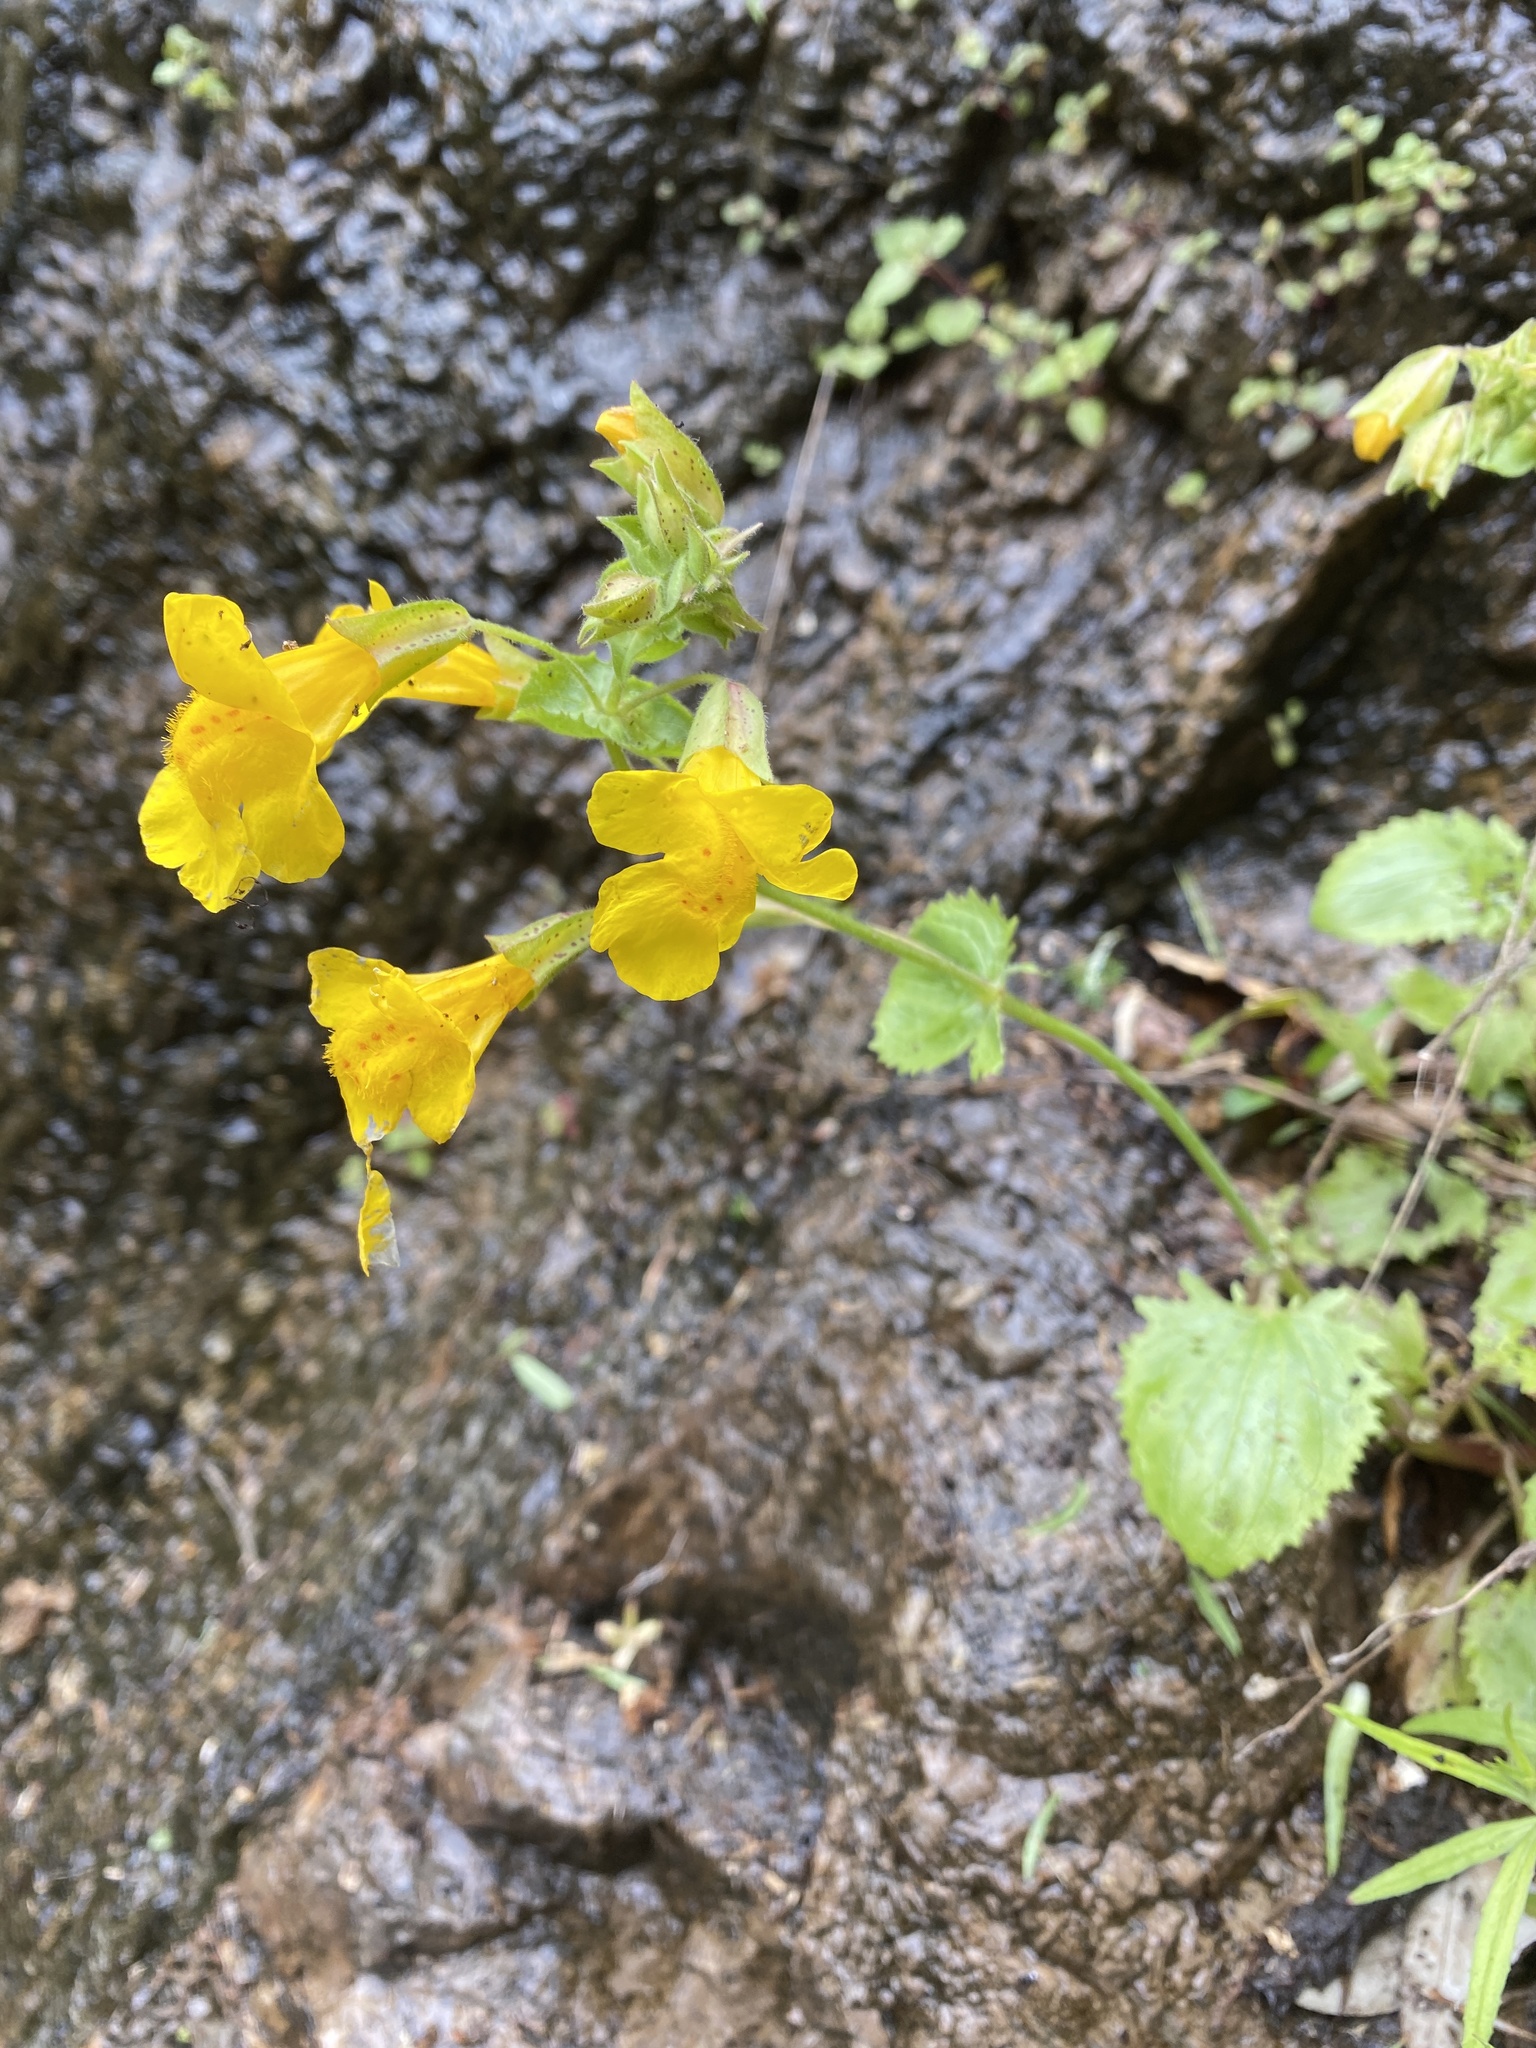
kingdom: Plantae
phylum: Tracheophyta
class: Magnoliopsida
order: Lamiales
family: Phrymaceae
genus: Erythranthe
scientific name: Erythranthe guttata
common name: Monkeyflower
